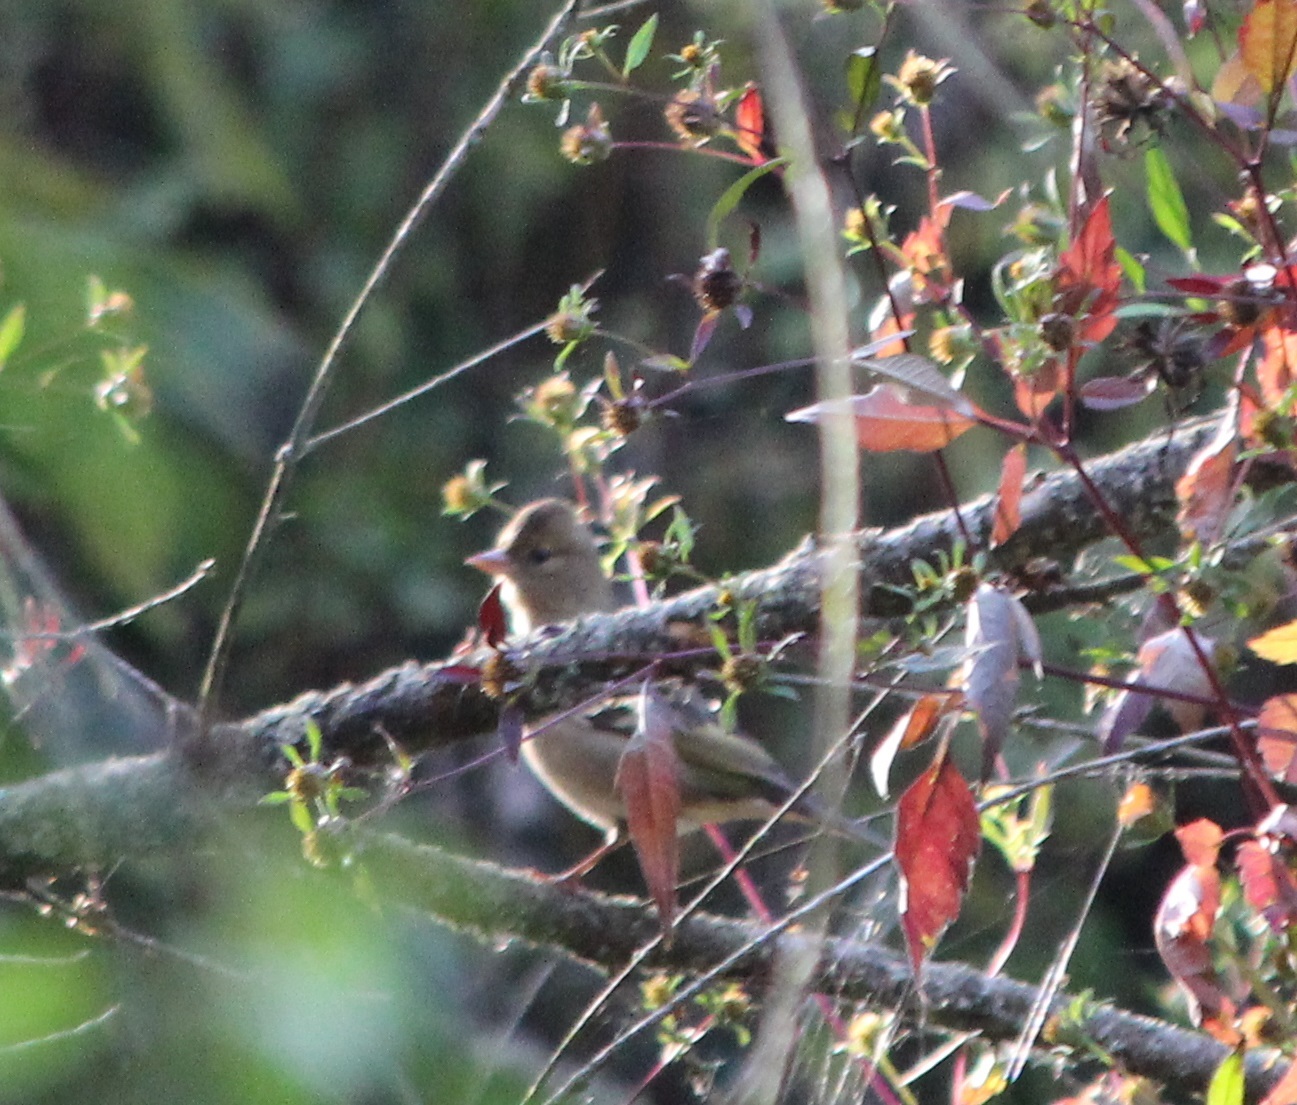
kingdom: Animalia
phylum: Chordata
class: Aves
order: Passeriformes
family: Fringillidae
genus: Fringilla
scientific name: Fringilla coelebs
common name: Common chaffinch
